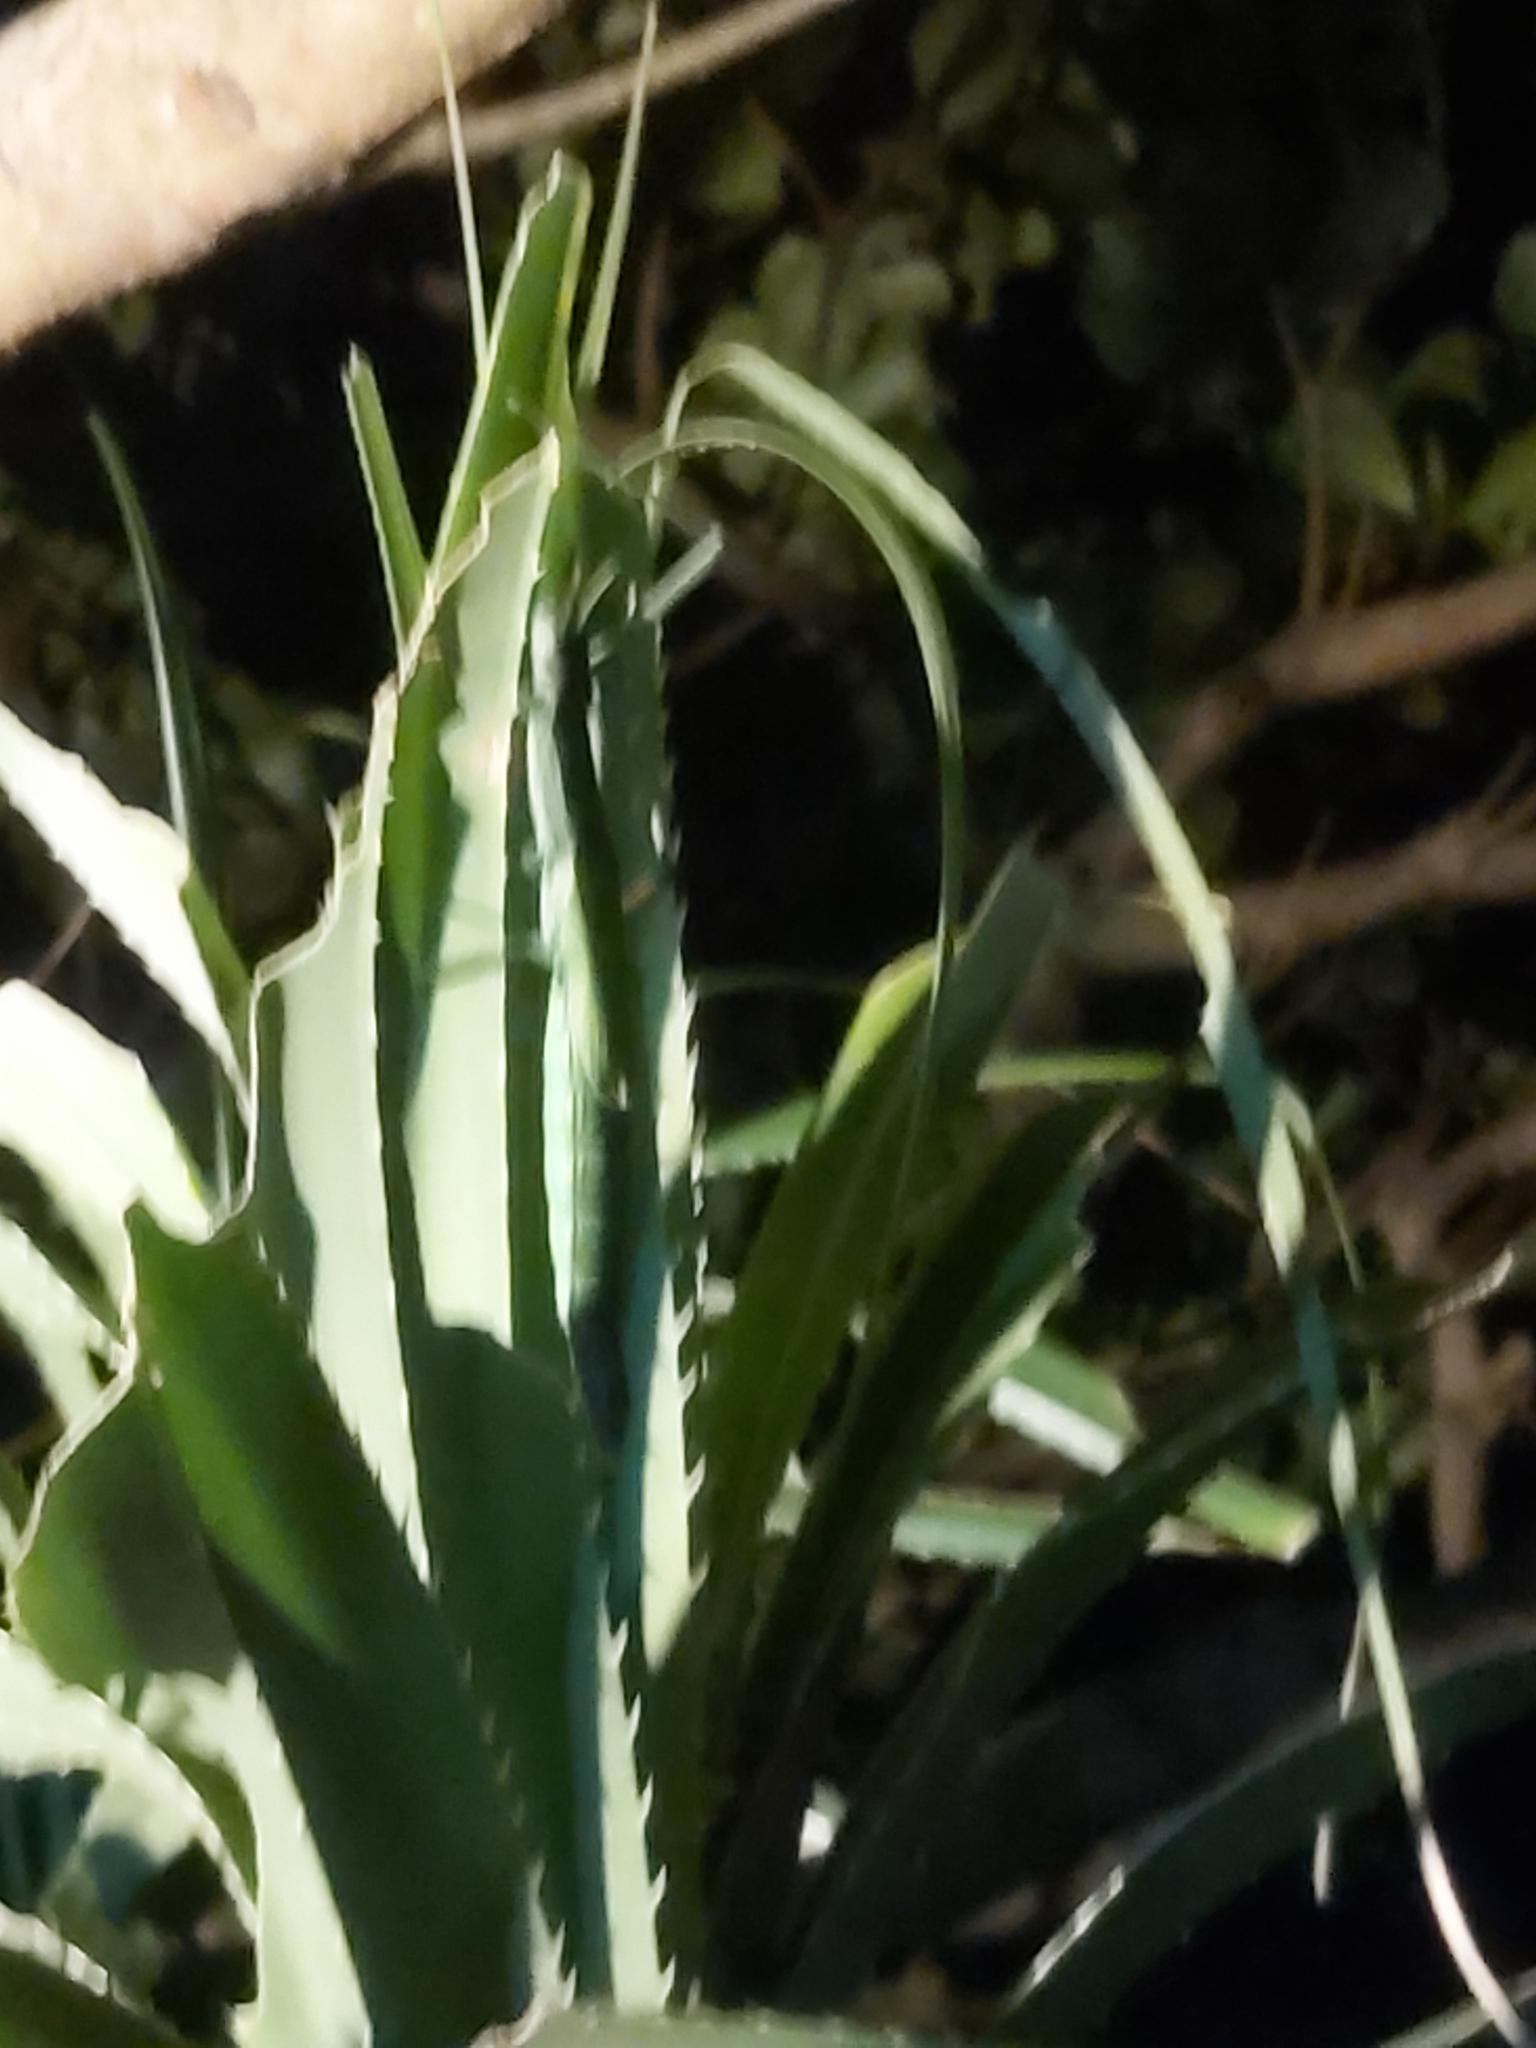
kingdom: Animalia
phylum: Arthropoda
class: Insecta
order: Phasmida
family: Phasmatidae
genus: Megacrania
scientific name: Megacrania tsudai
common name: Tsuda's giant stick-insect
